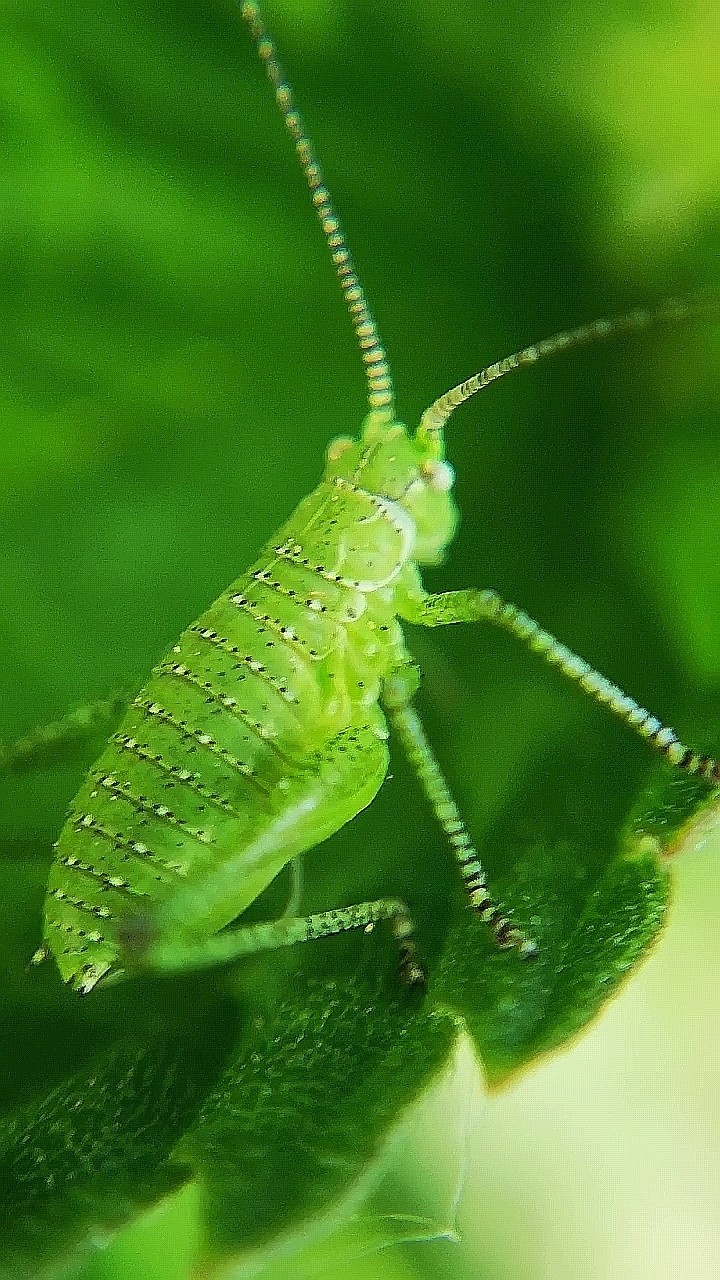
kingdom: Animalia
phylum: Arthropoda
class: Insecta
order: Orthoptera
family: Tettigoniidae
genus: Leptophyes
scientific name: Leptophyes boscii
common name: Balkan speckled bush-cricket
